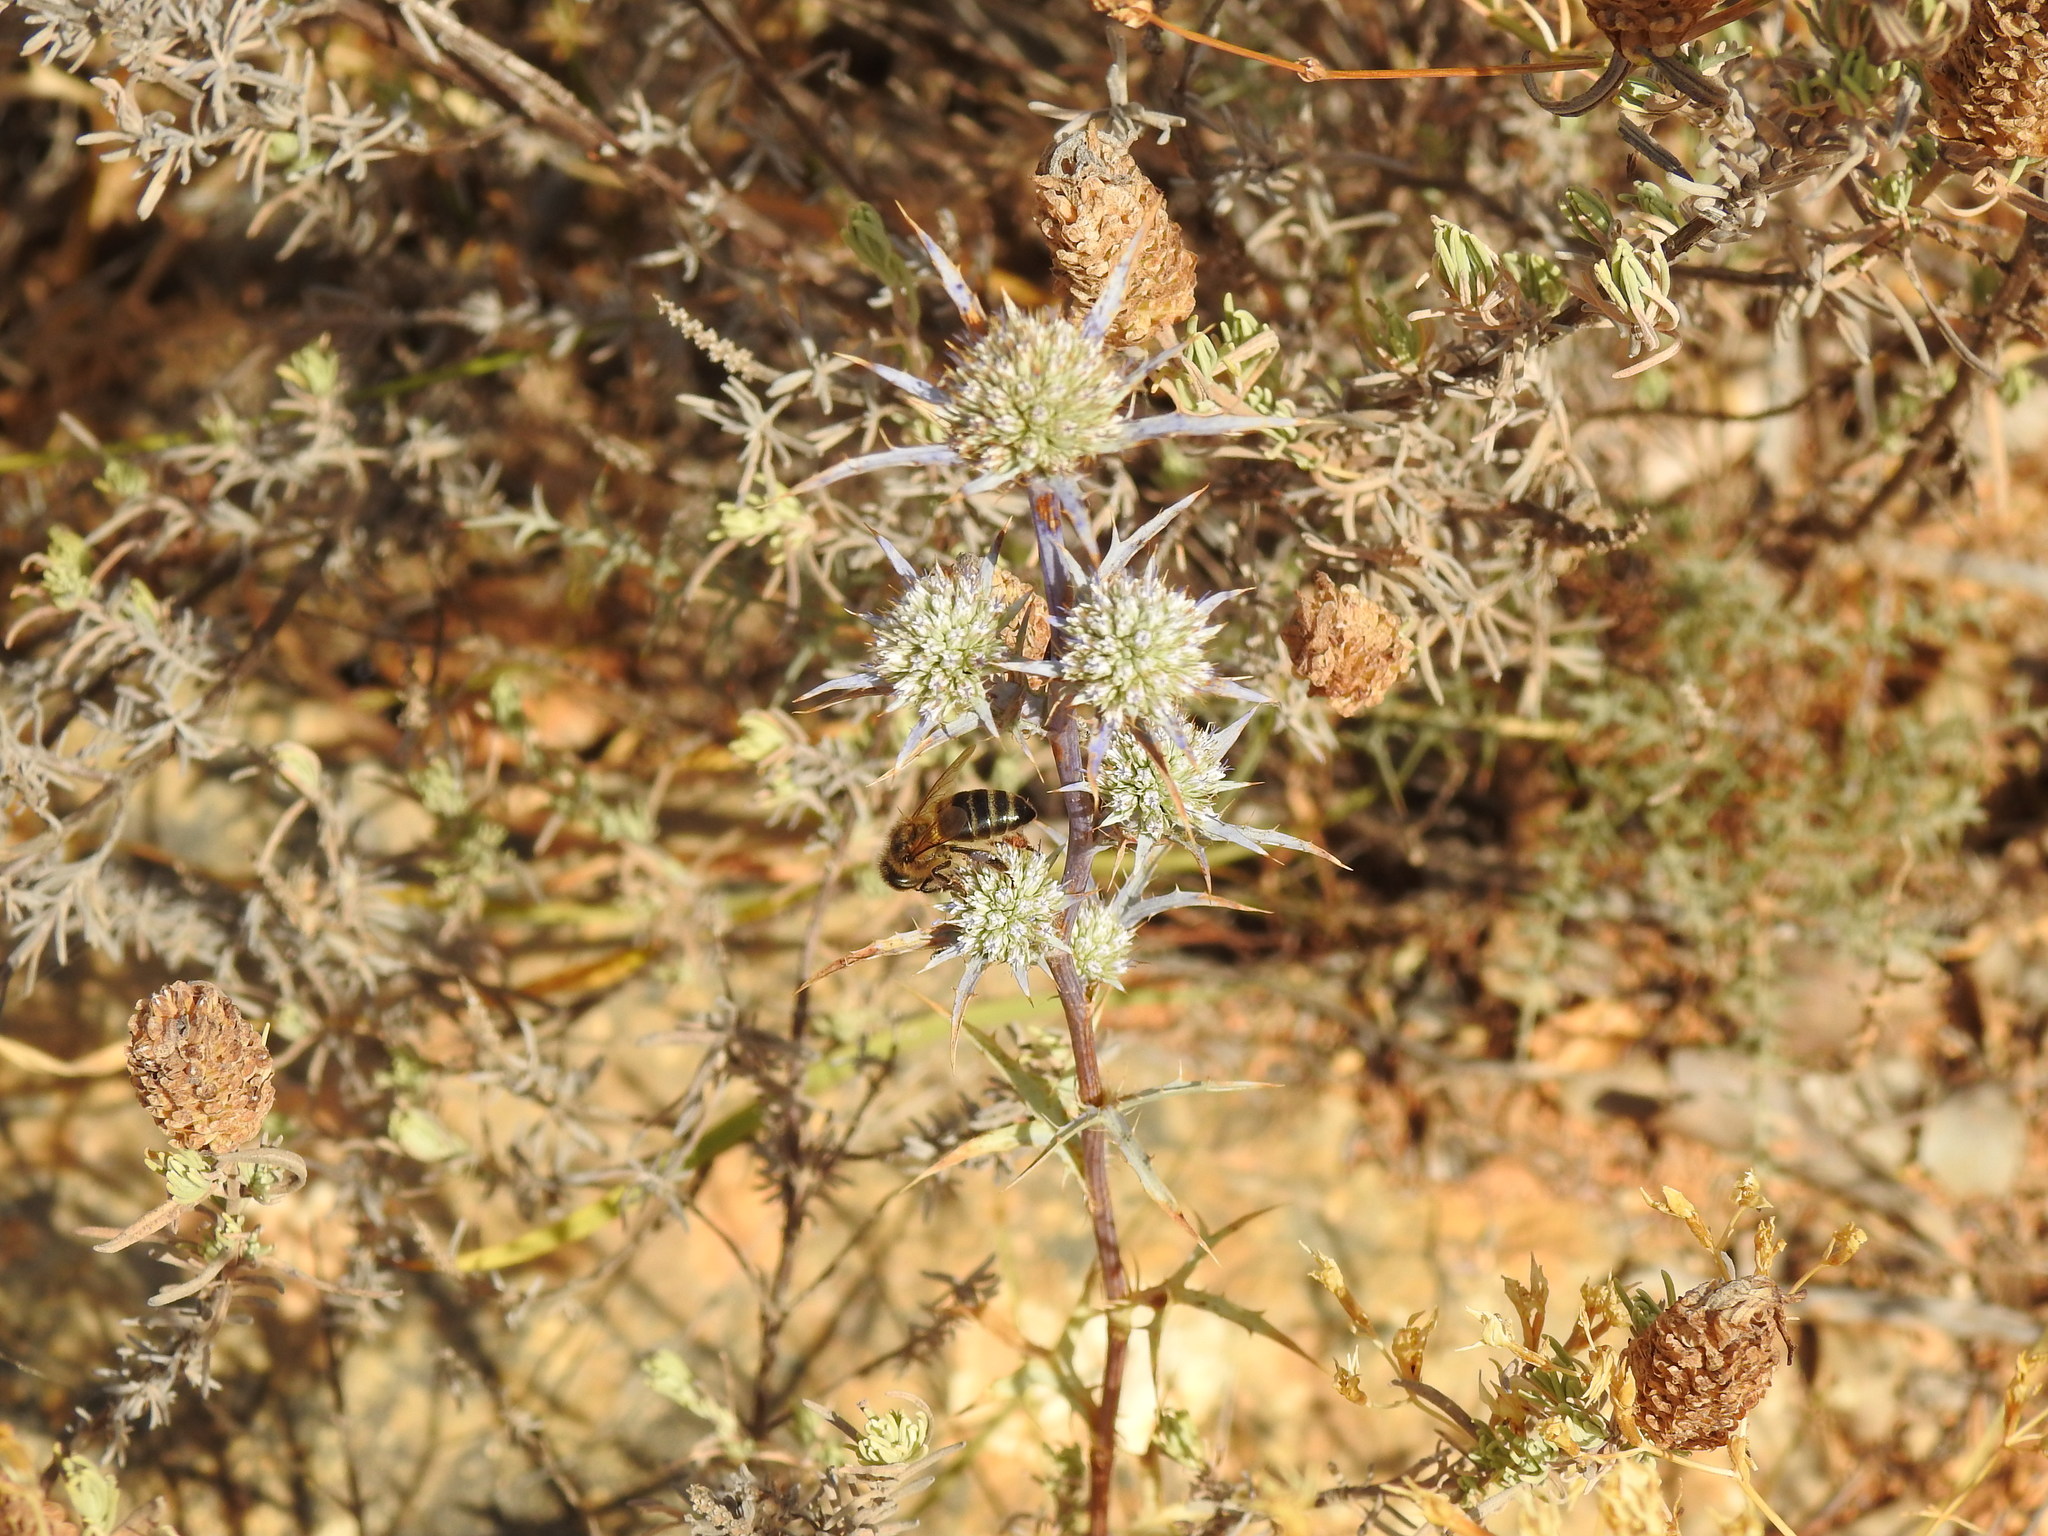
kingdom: Animalia
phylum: Arthropoda
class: Insecta
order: Hymenoptera
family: Apidae
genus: Apis
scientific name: Apis mellifera
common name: Honey bee
